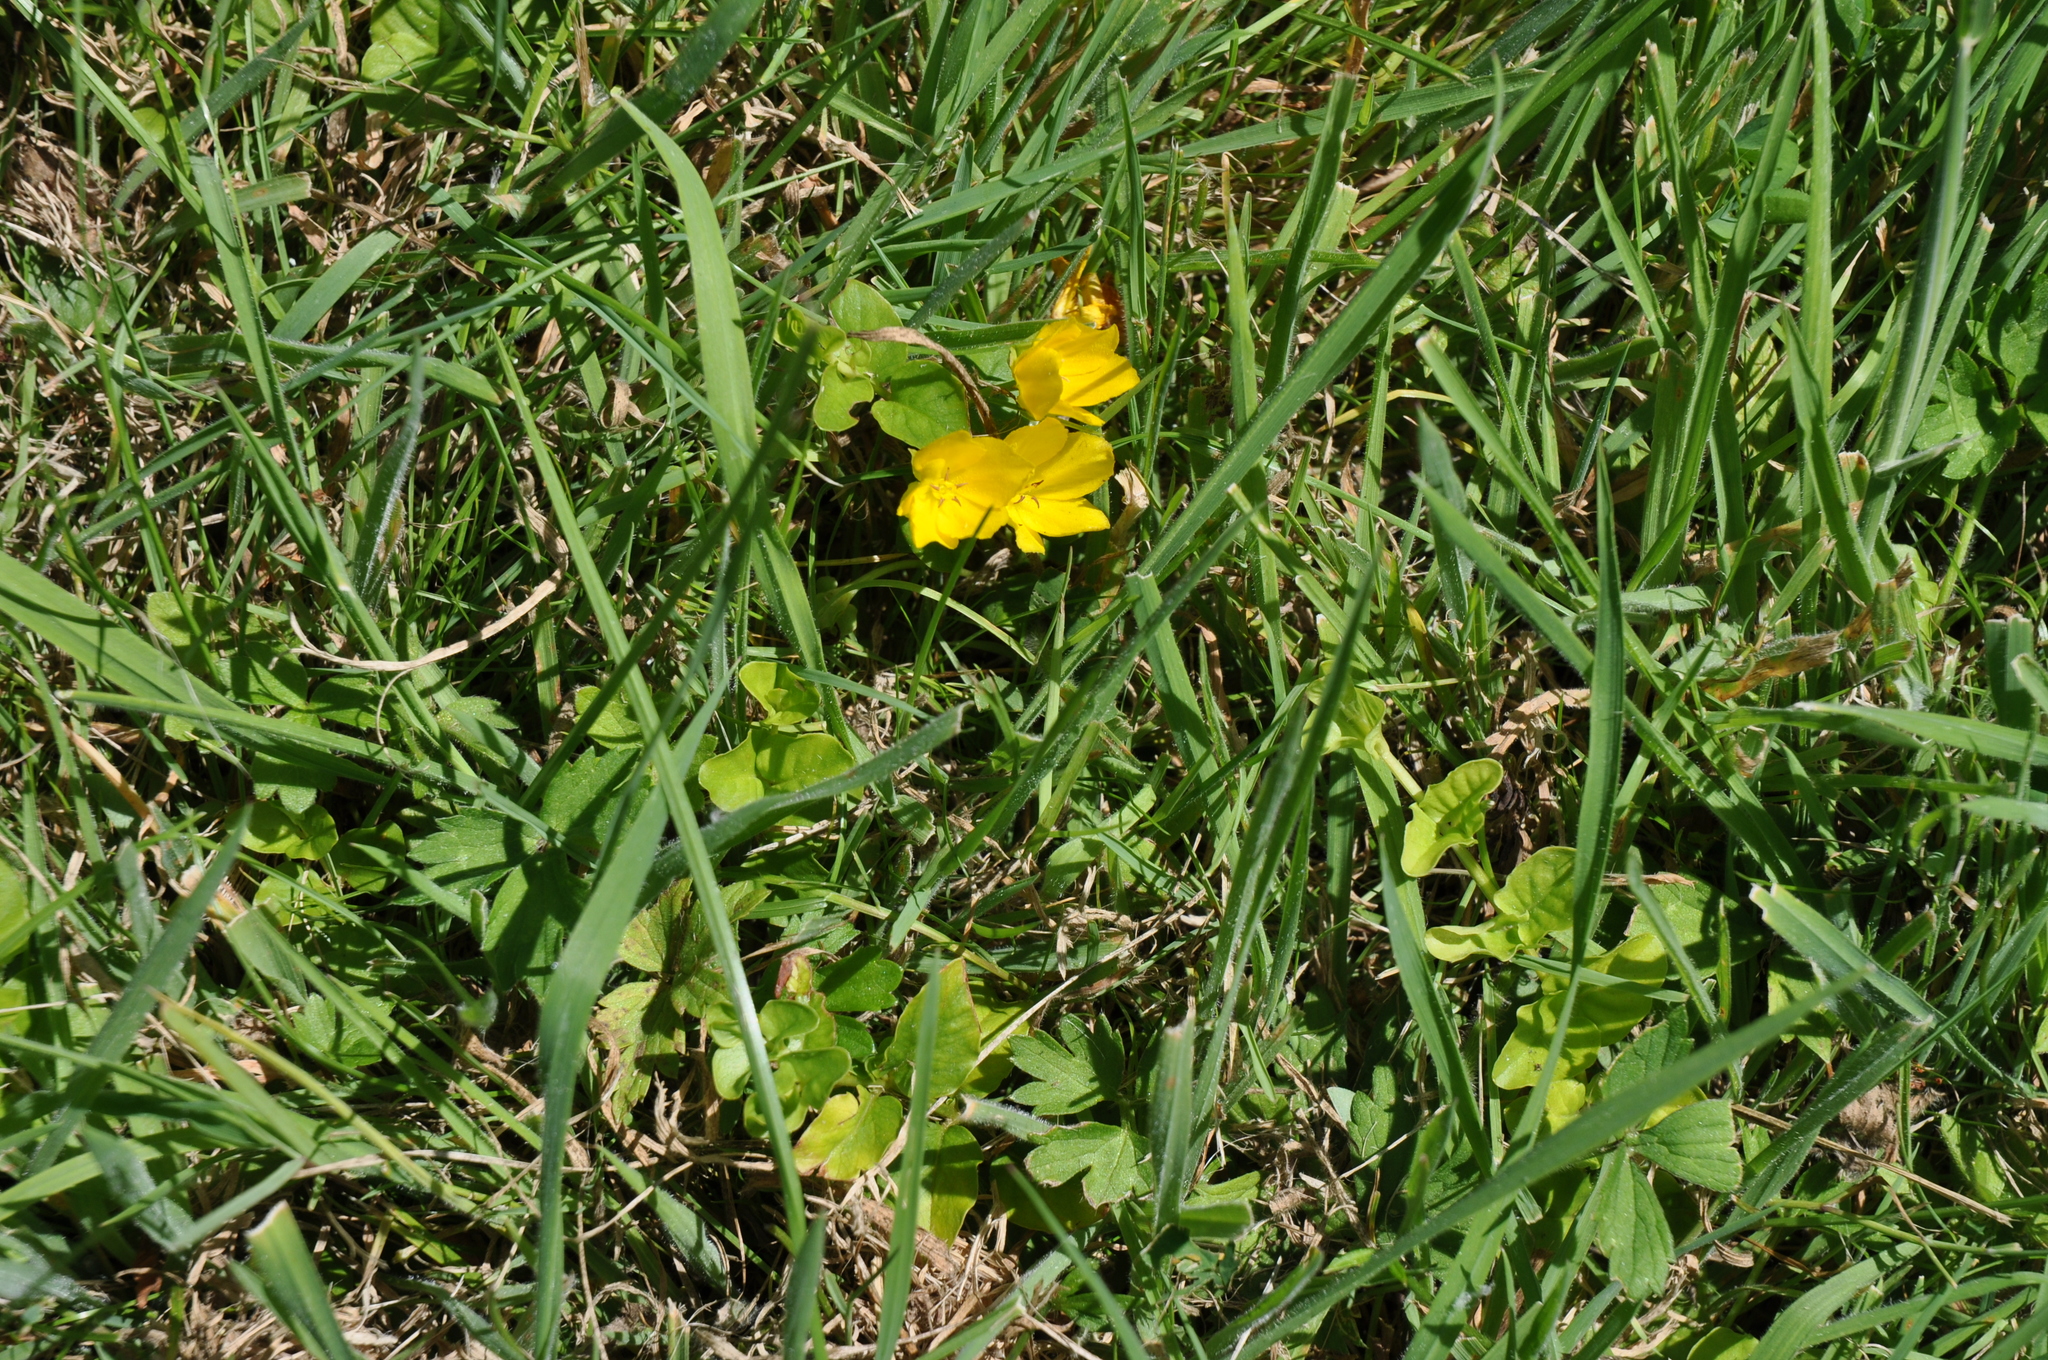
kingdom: Plantae
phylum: Tracheophyta
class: Magnoliopsida
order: Ericales
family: Primulaceae
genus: Lysimachia
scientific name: Lysimachia nummularia
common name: Moneywort
